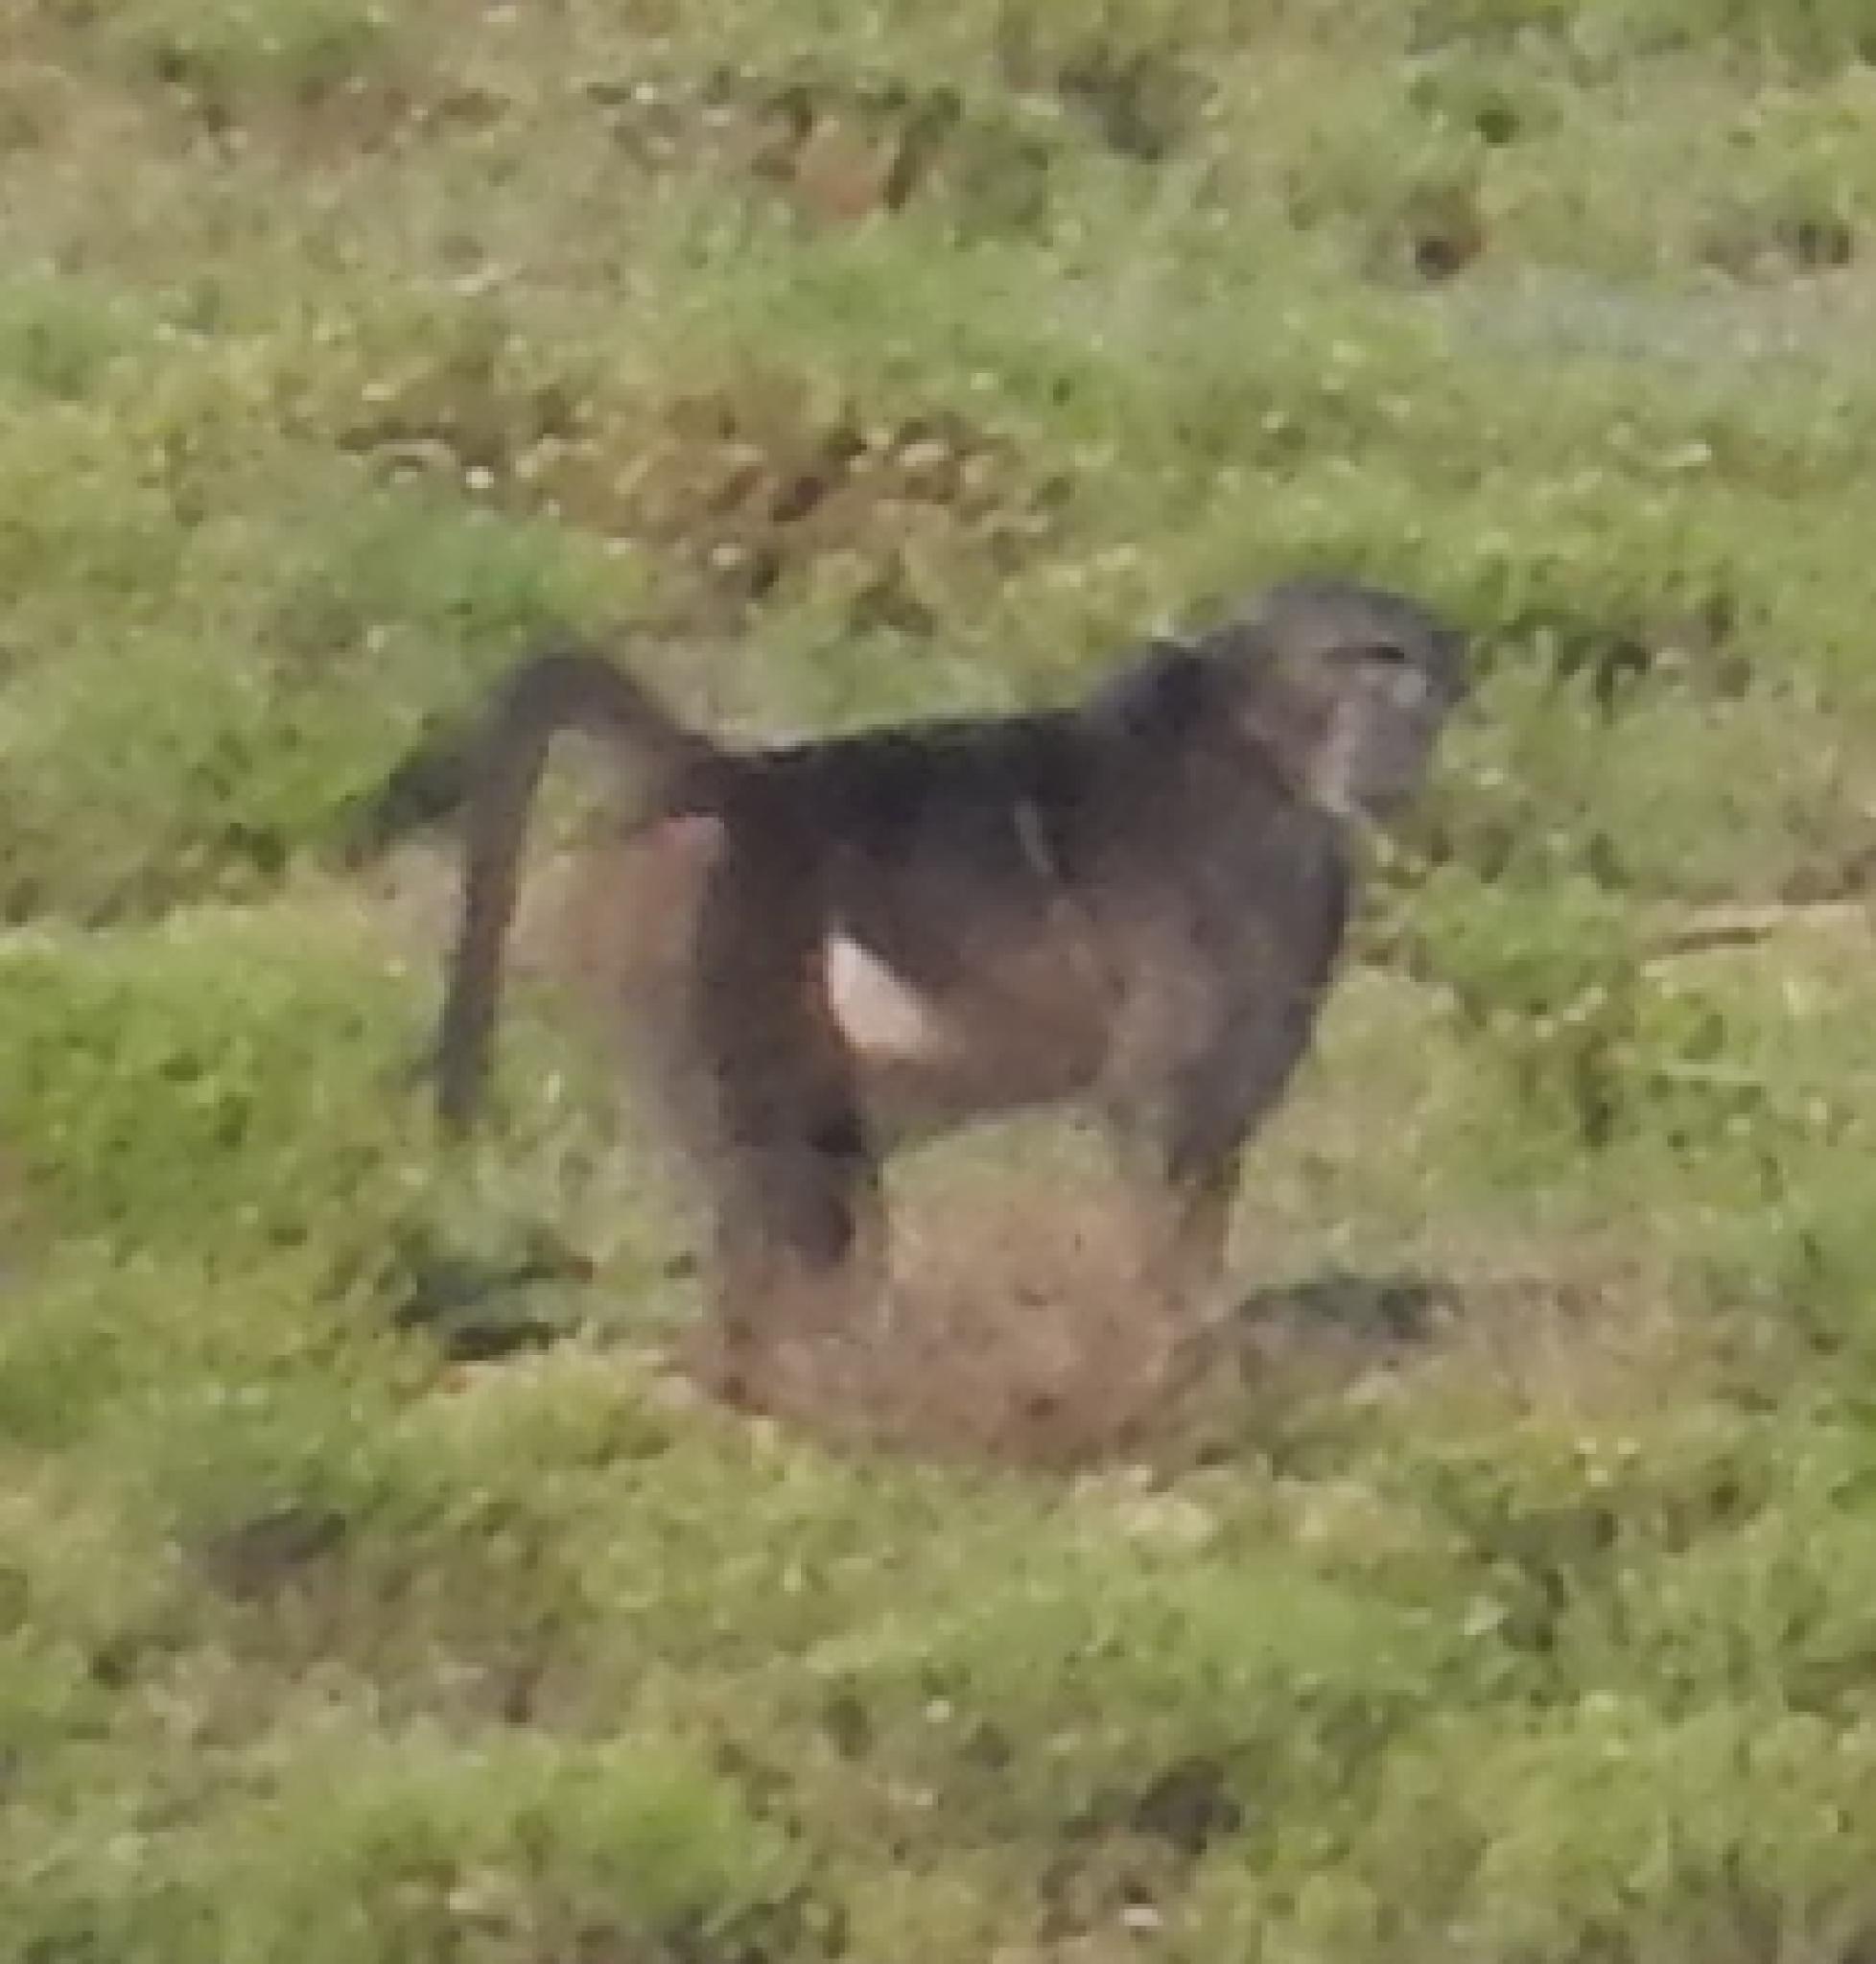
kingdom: Animalia
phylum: Chordata
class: Mammalia
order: Primates
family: Cercopithecidae
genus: Papio
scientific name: Papio ursinus
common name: Chacma baboon
